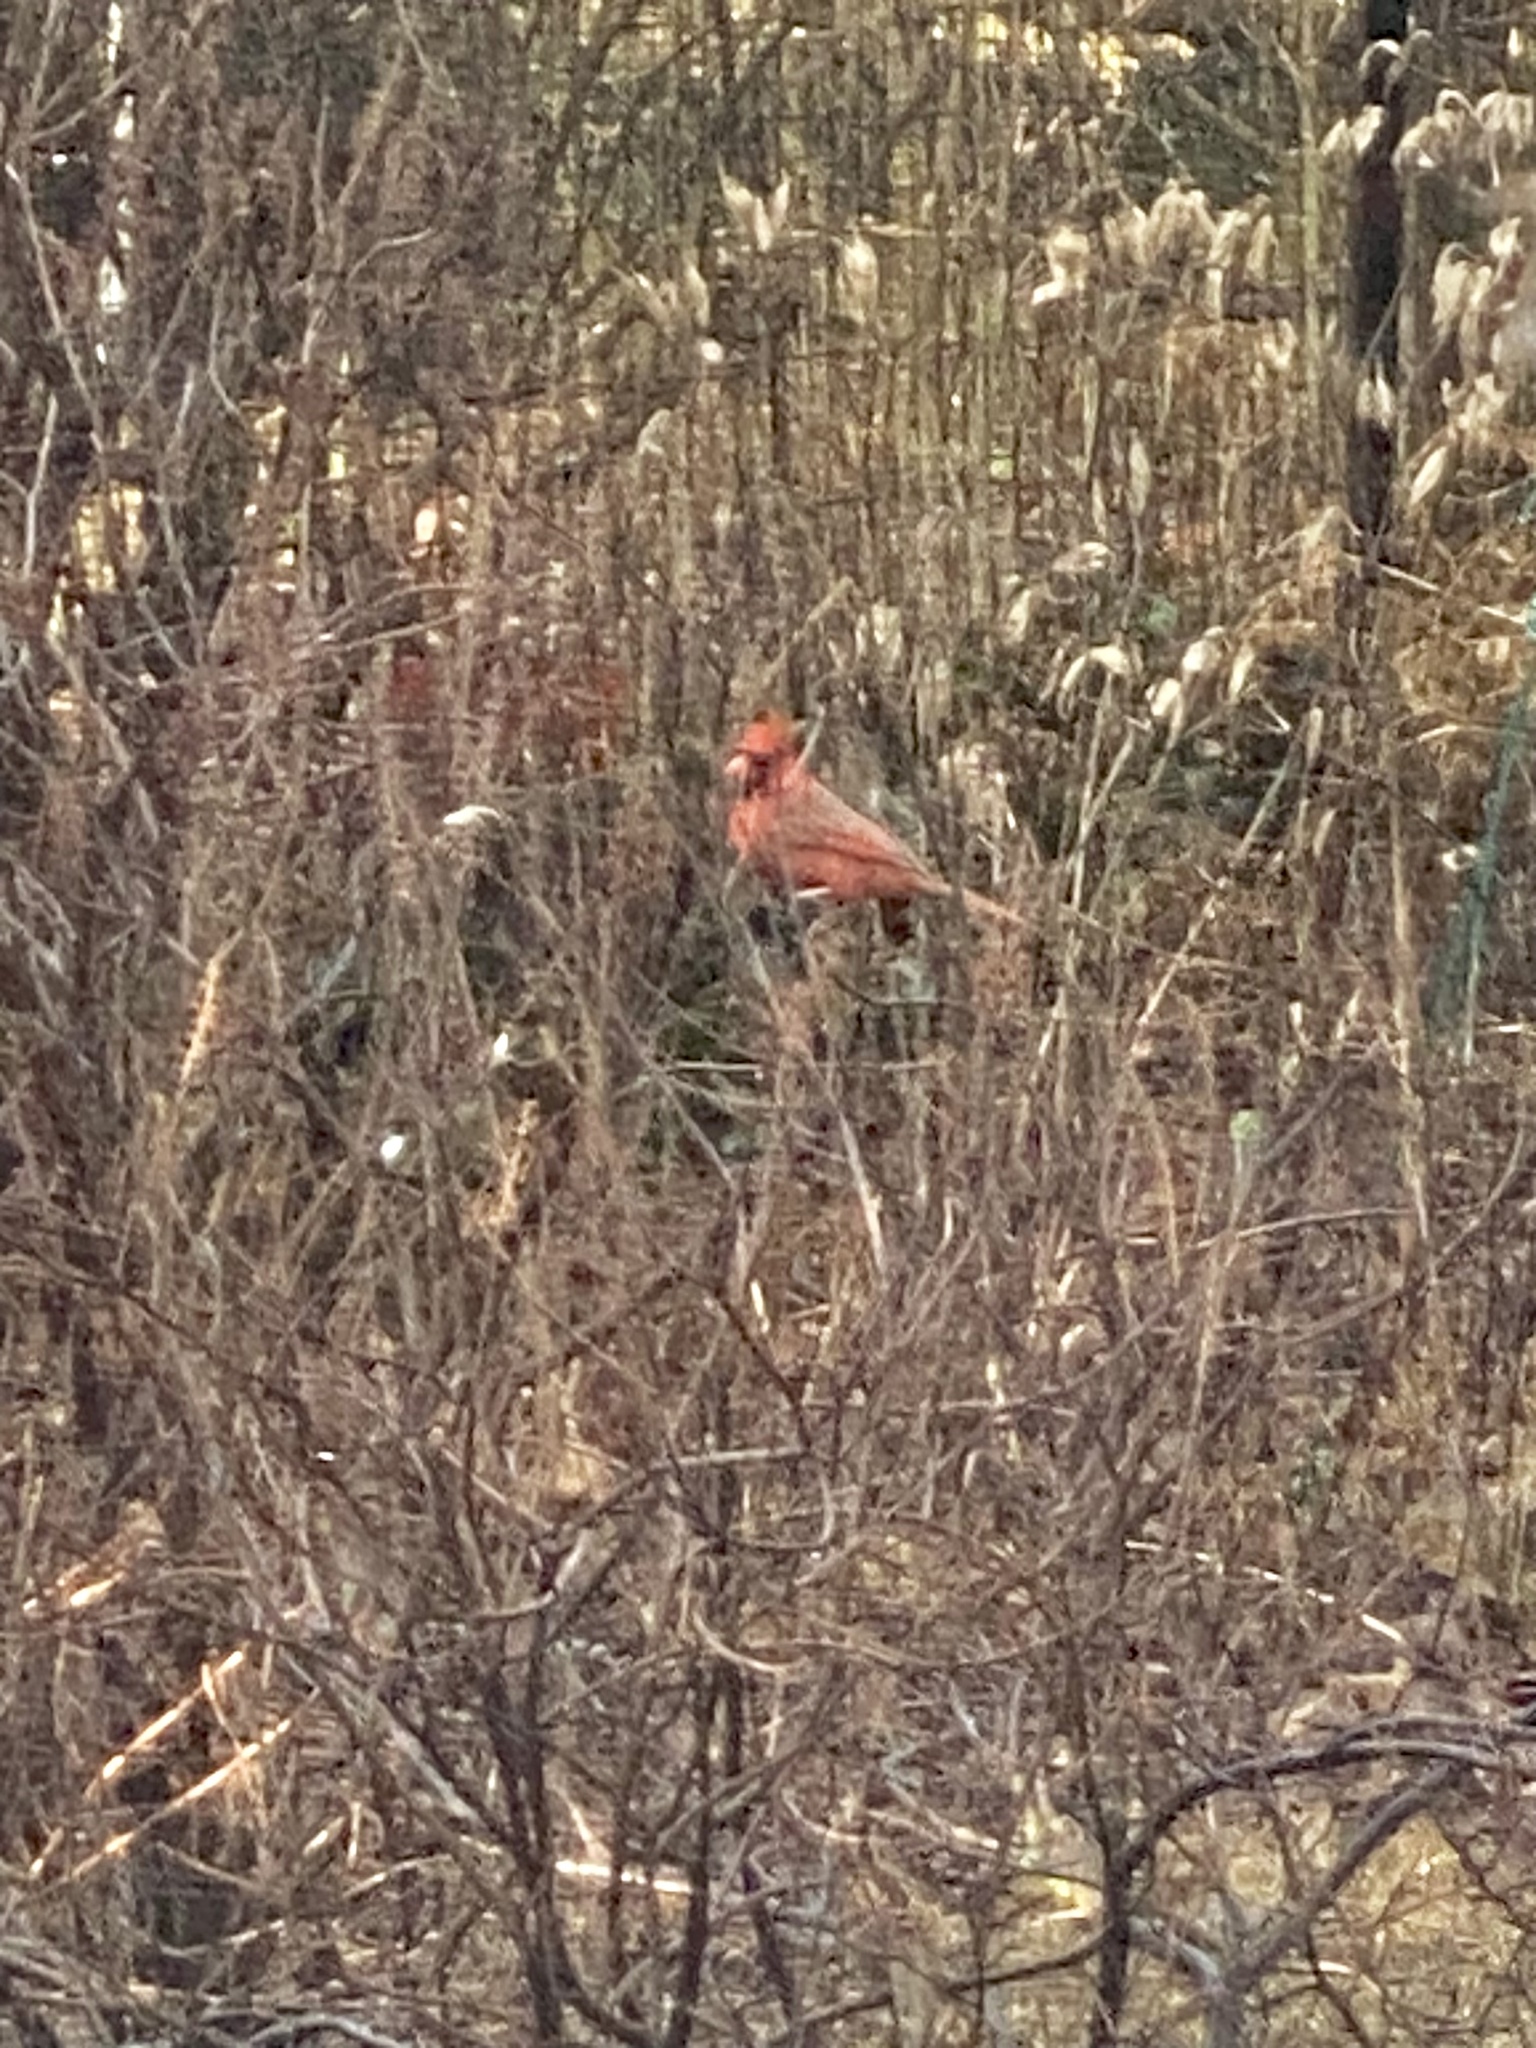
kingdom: Animalia
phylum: Chordata
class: Aves
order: Passeriformes
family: Cardinalidae
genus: Cardinalis
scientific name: Cardinalis cardinalis
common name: Northern cardinal
